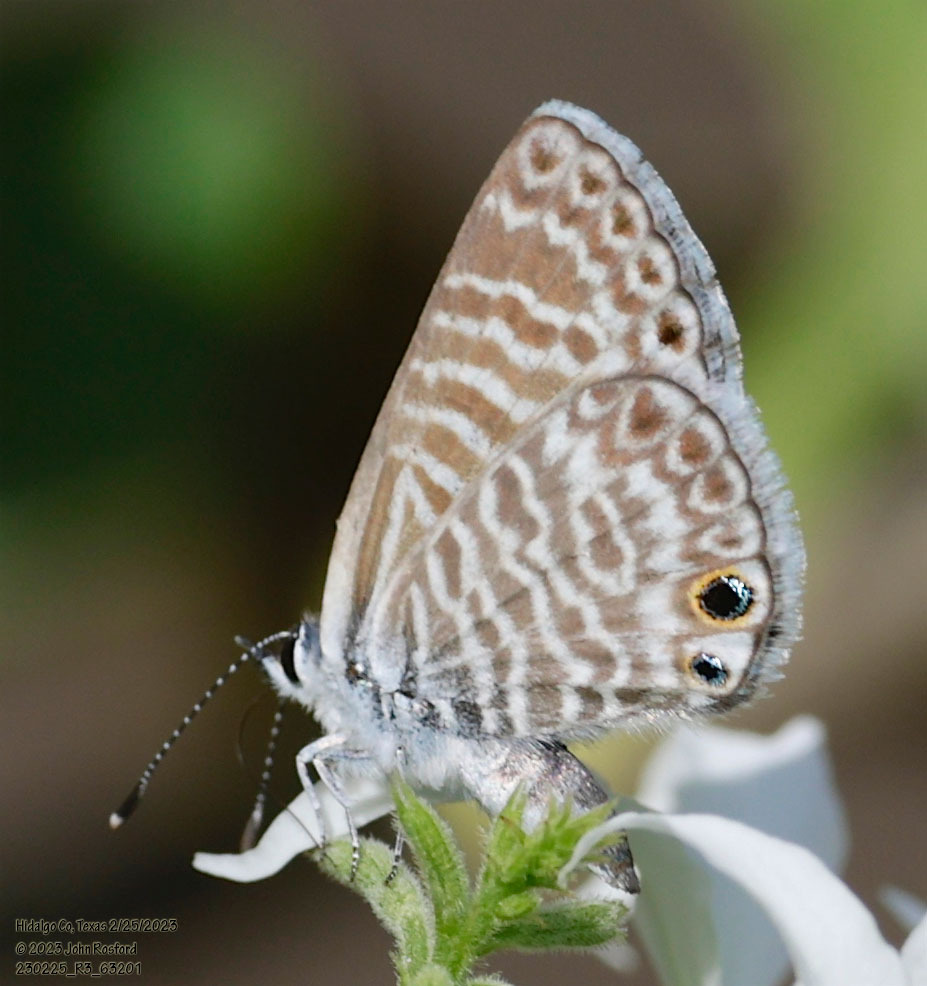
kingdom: Animalia
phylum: Arthropoda
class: Insecta
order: Lepidoptera
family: Lycaenidae
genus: Leptotes
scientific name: Leptotes marina
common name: Marine blue
